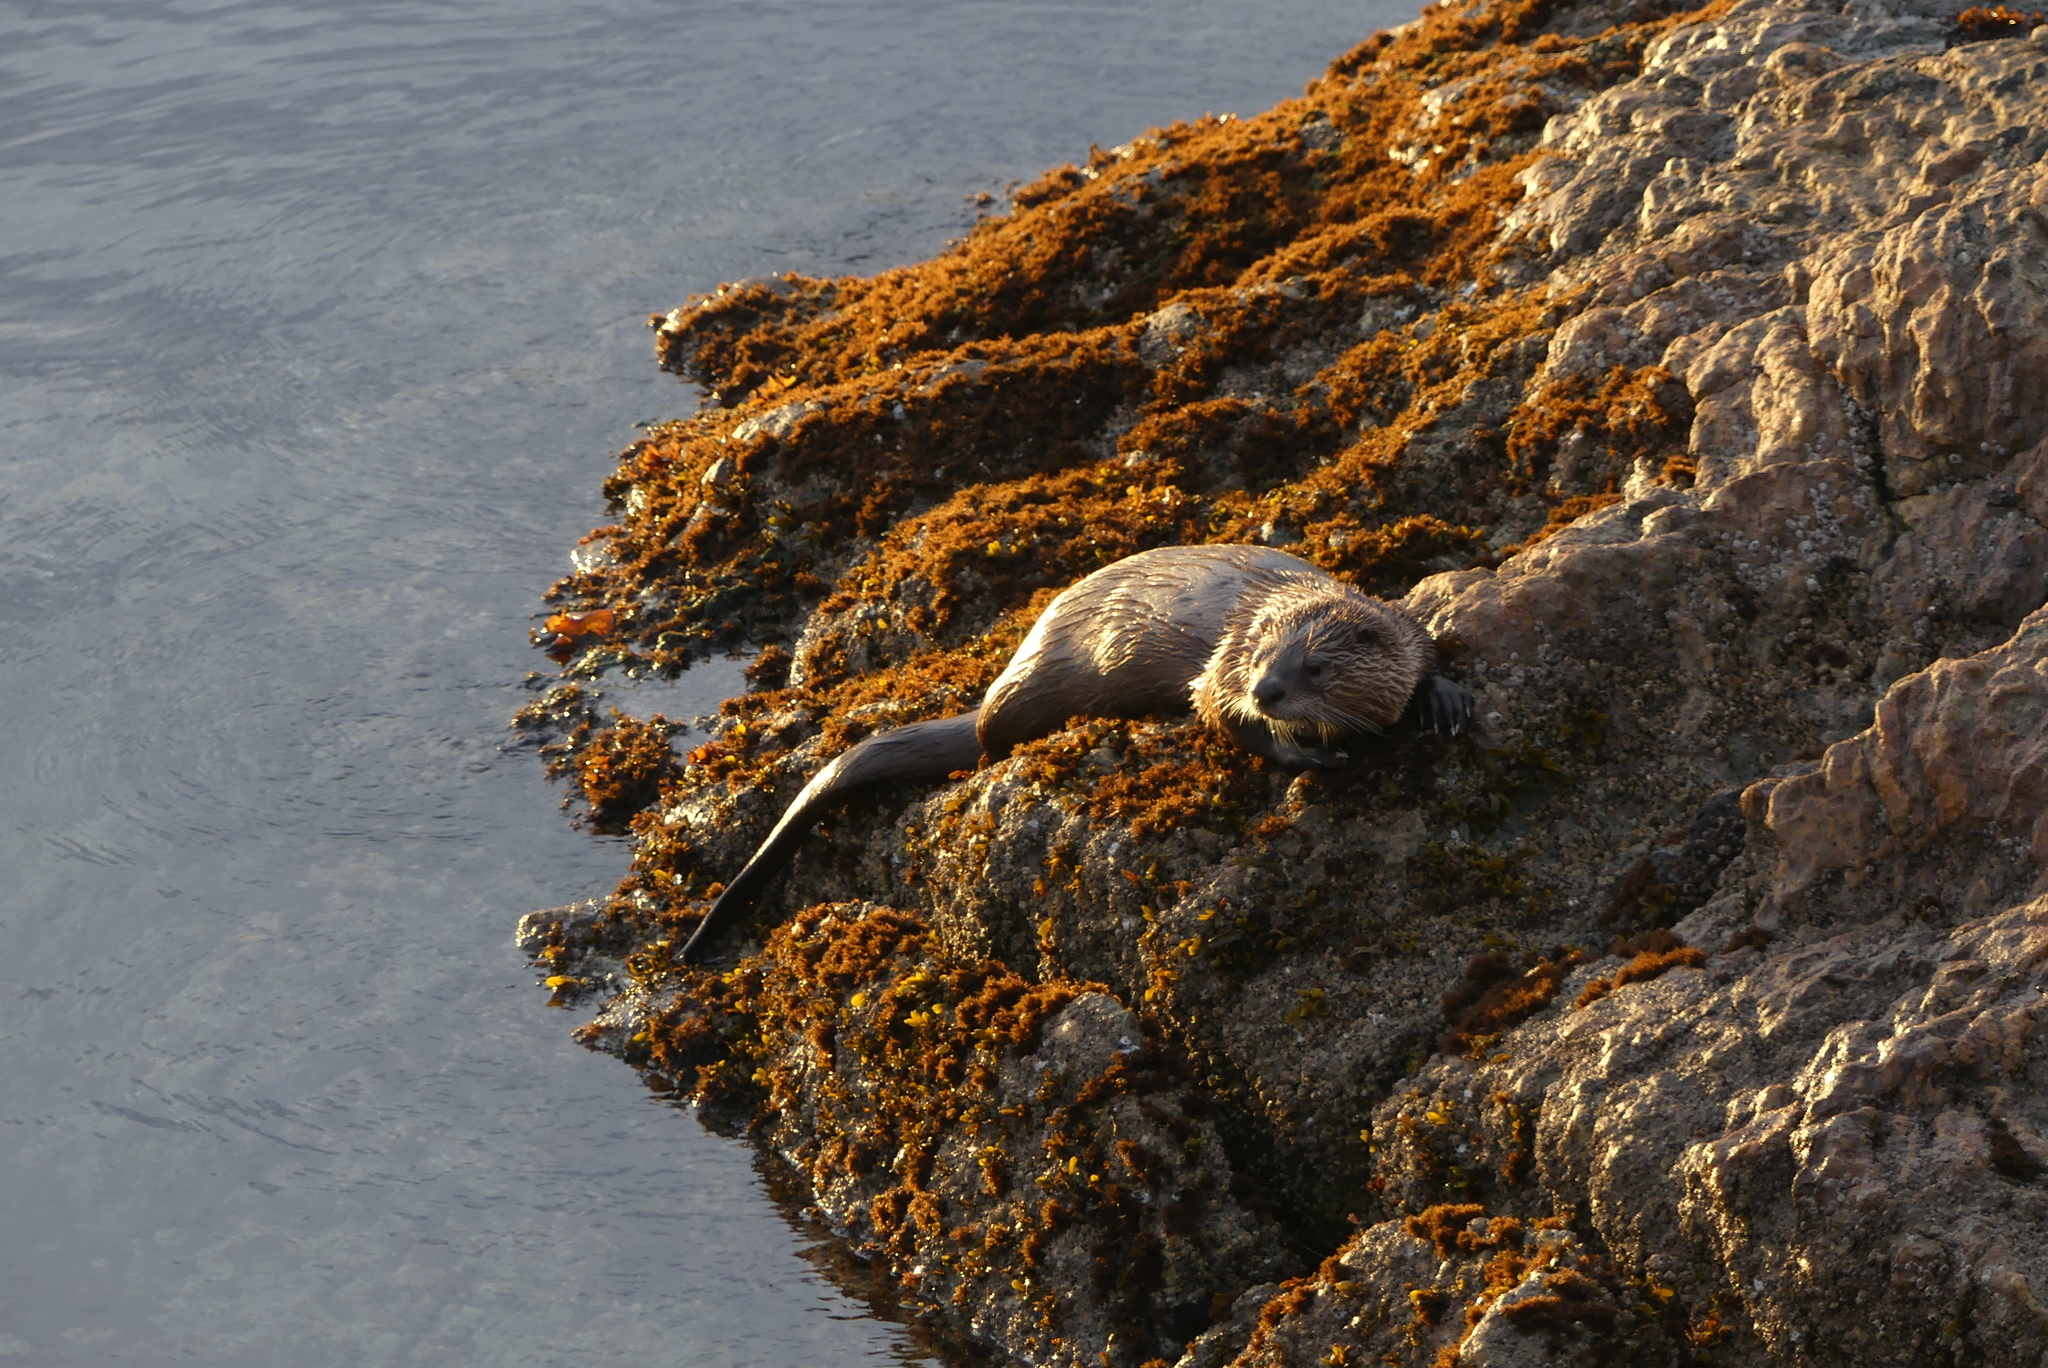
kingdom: Animalia
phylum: Chordata
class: Mammalia
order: Carnivora
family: Mustelidae
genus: Lontra
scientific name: Lontra canadensis
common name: North american river otter
